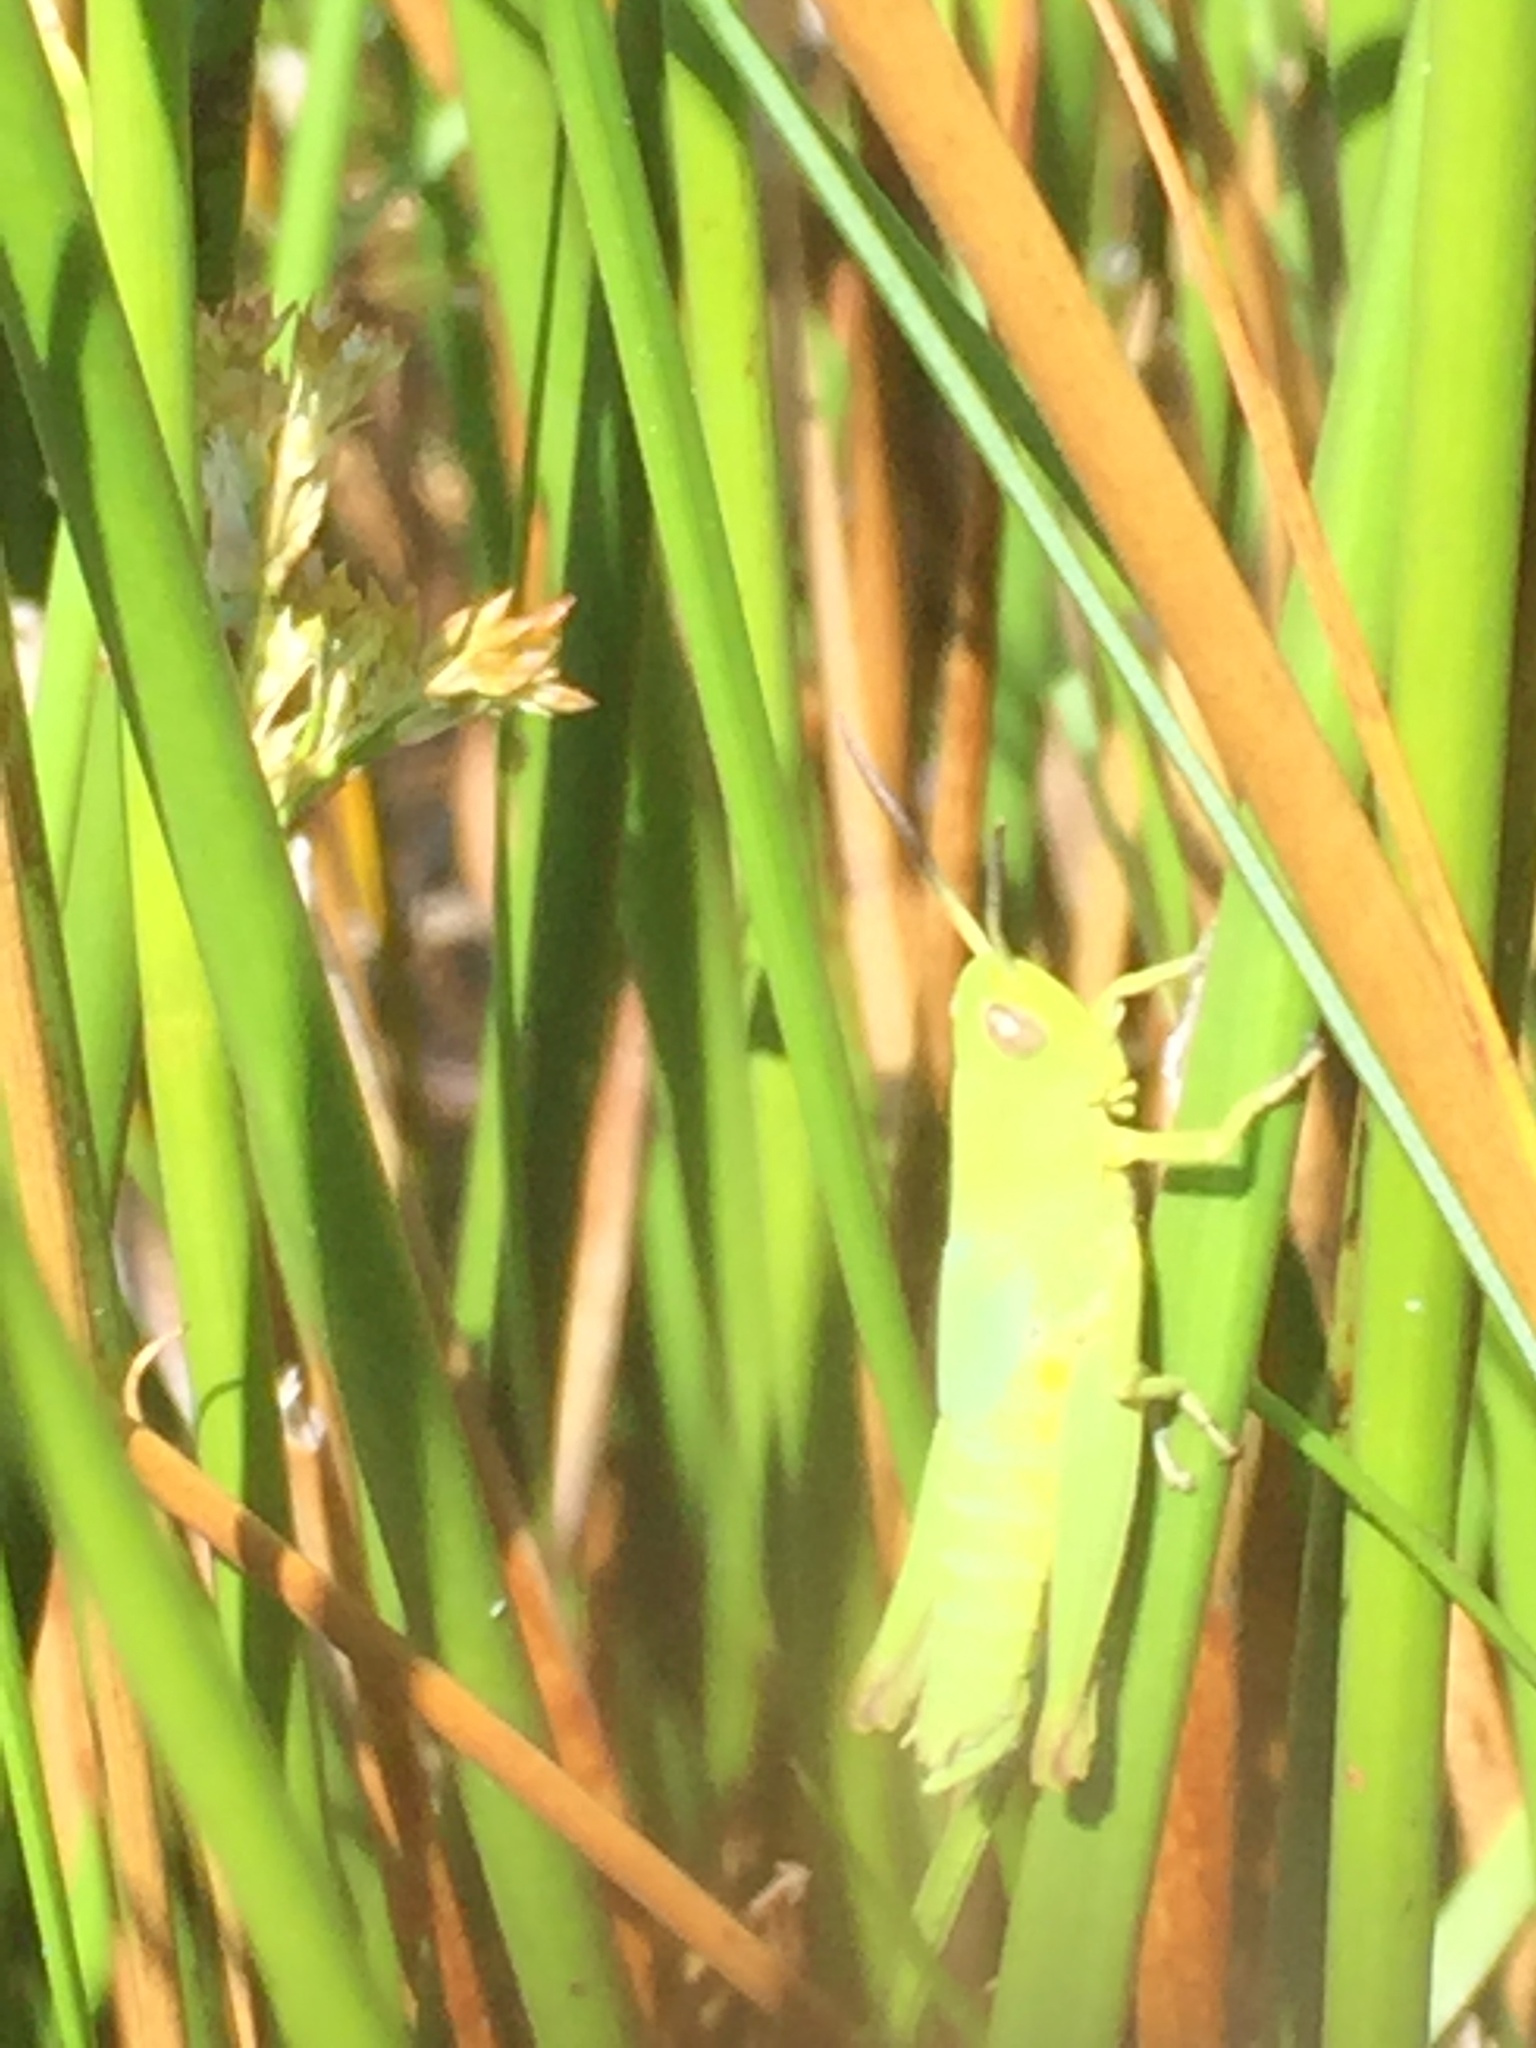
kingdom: Animalia
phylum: Arthropoda
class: Insecta
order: Orthoptera
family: Acrididae
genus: Chorthippus
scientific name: Chorthippus jucundus
